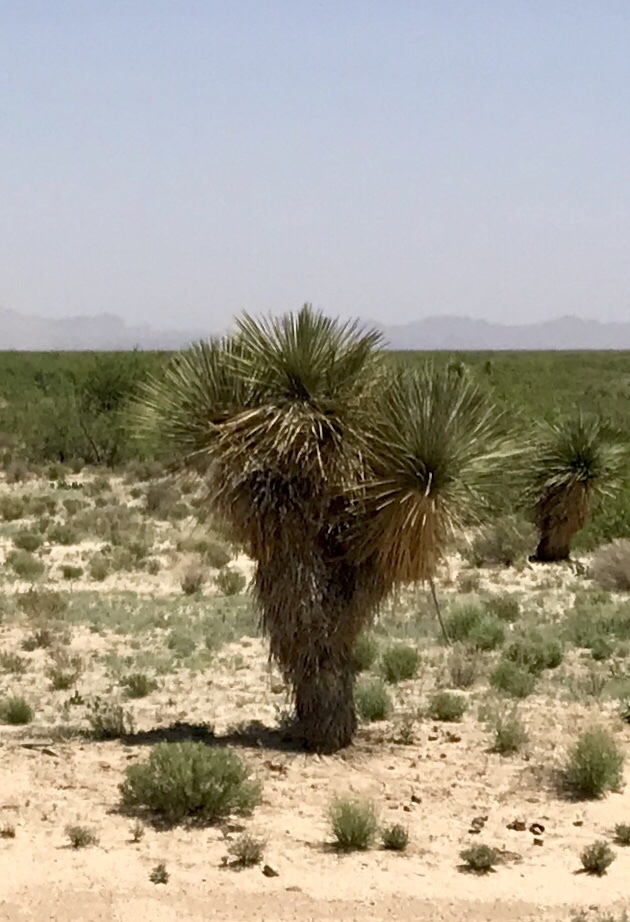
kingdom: Plantae
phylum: Tracheophyta
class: Liliopsida
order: Asparagales
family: Asparagaceae
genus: Yucca
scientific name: Yucca elata
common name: Palmella
